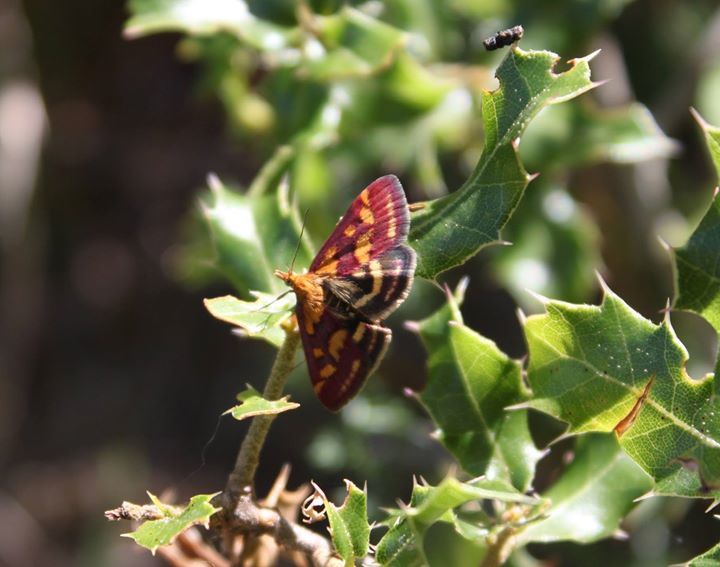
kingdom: Animalia
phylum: Arthropoda
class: Insecta
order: Lepidoptera
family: Crambidae
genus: Pyrausta
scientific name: Pyrausta purpuralis
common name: Common purple & gold
